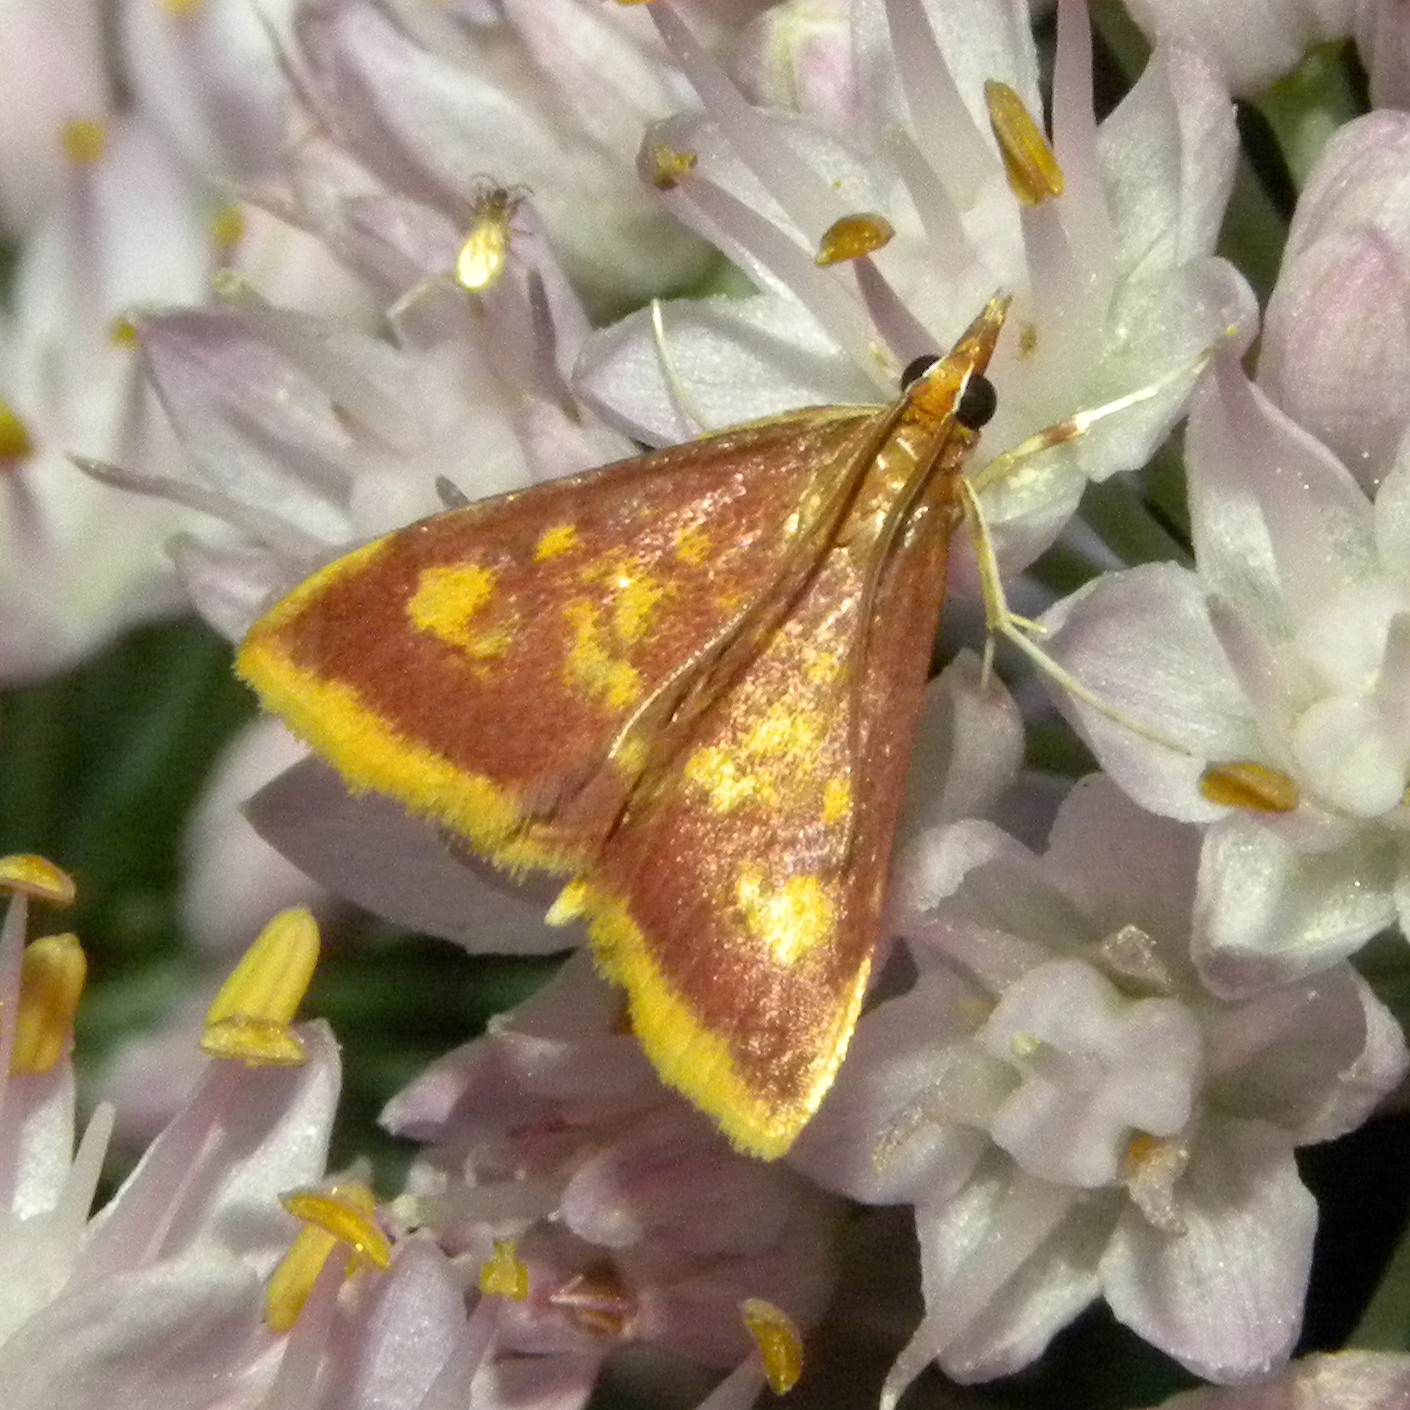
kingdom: Animalia
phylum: Arthropoda
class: Insecta
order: Lepidoptera
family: Crambidae
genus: Pyrausta
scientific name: Pyrausta acrionalis
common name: Mint-loving pyrausta moth
